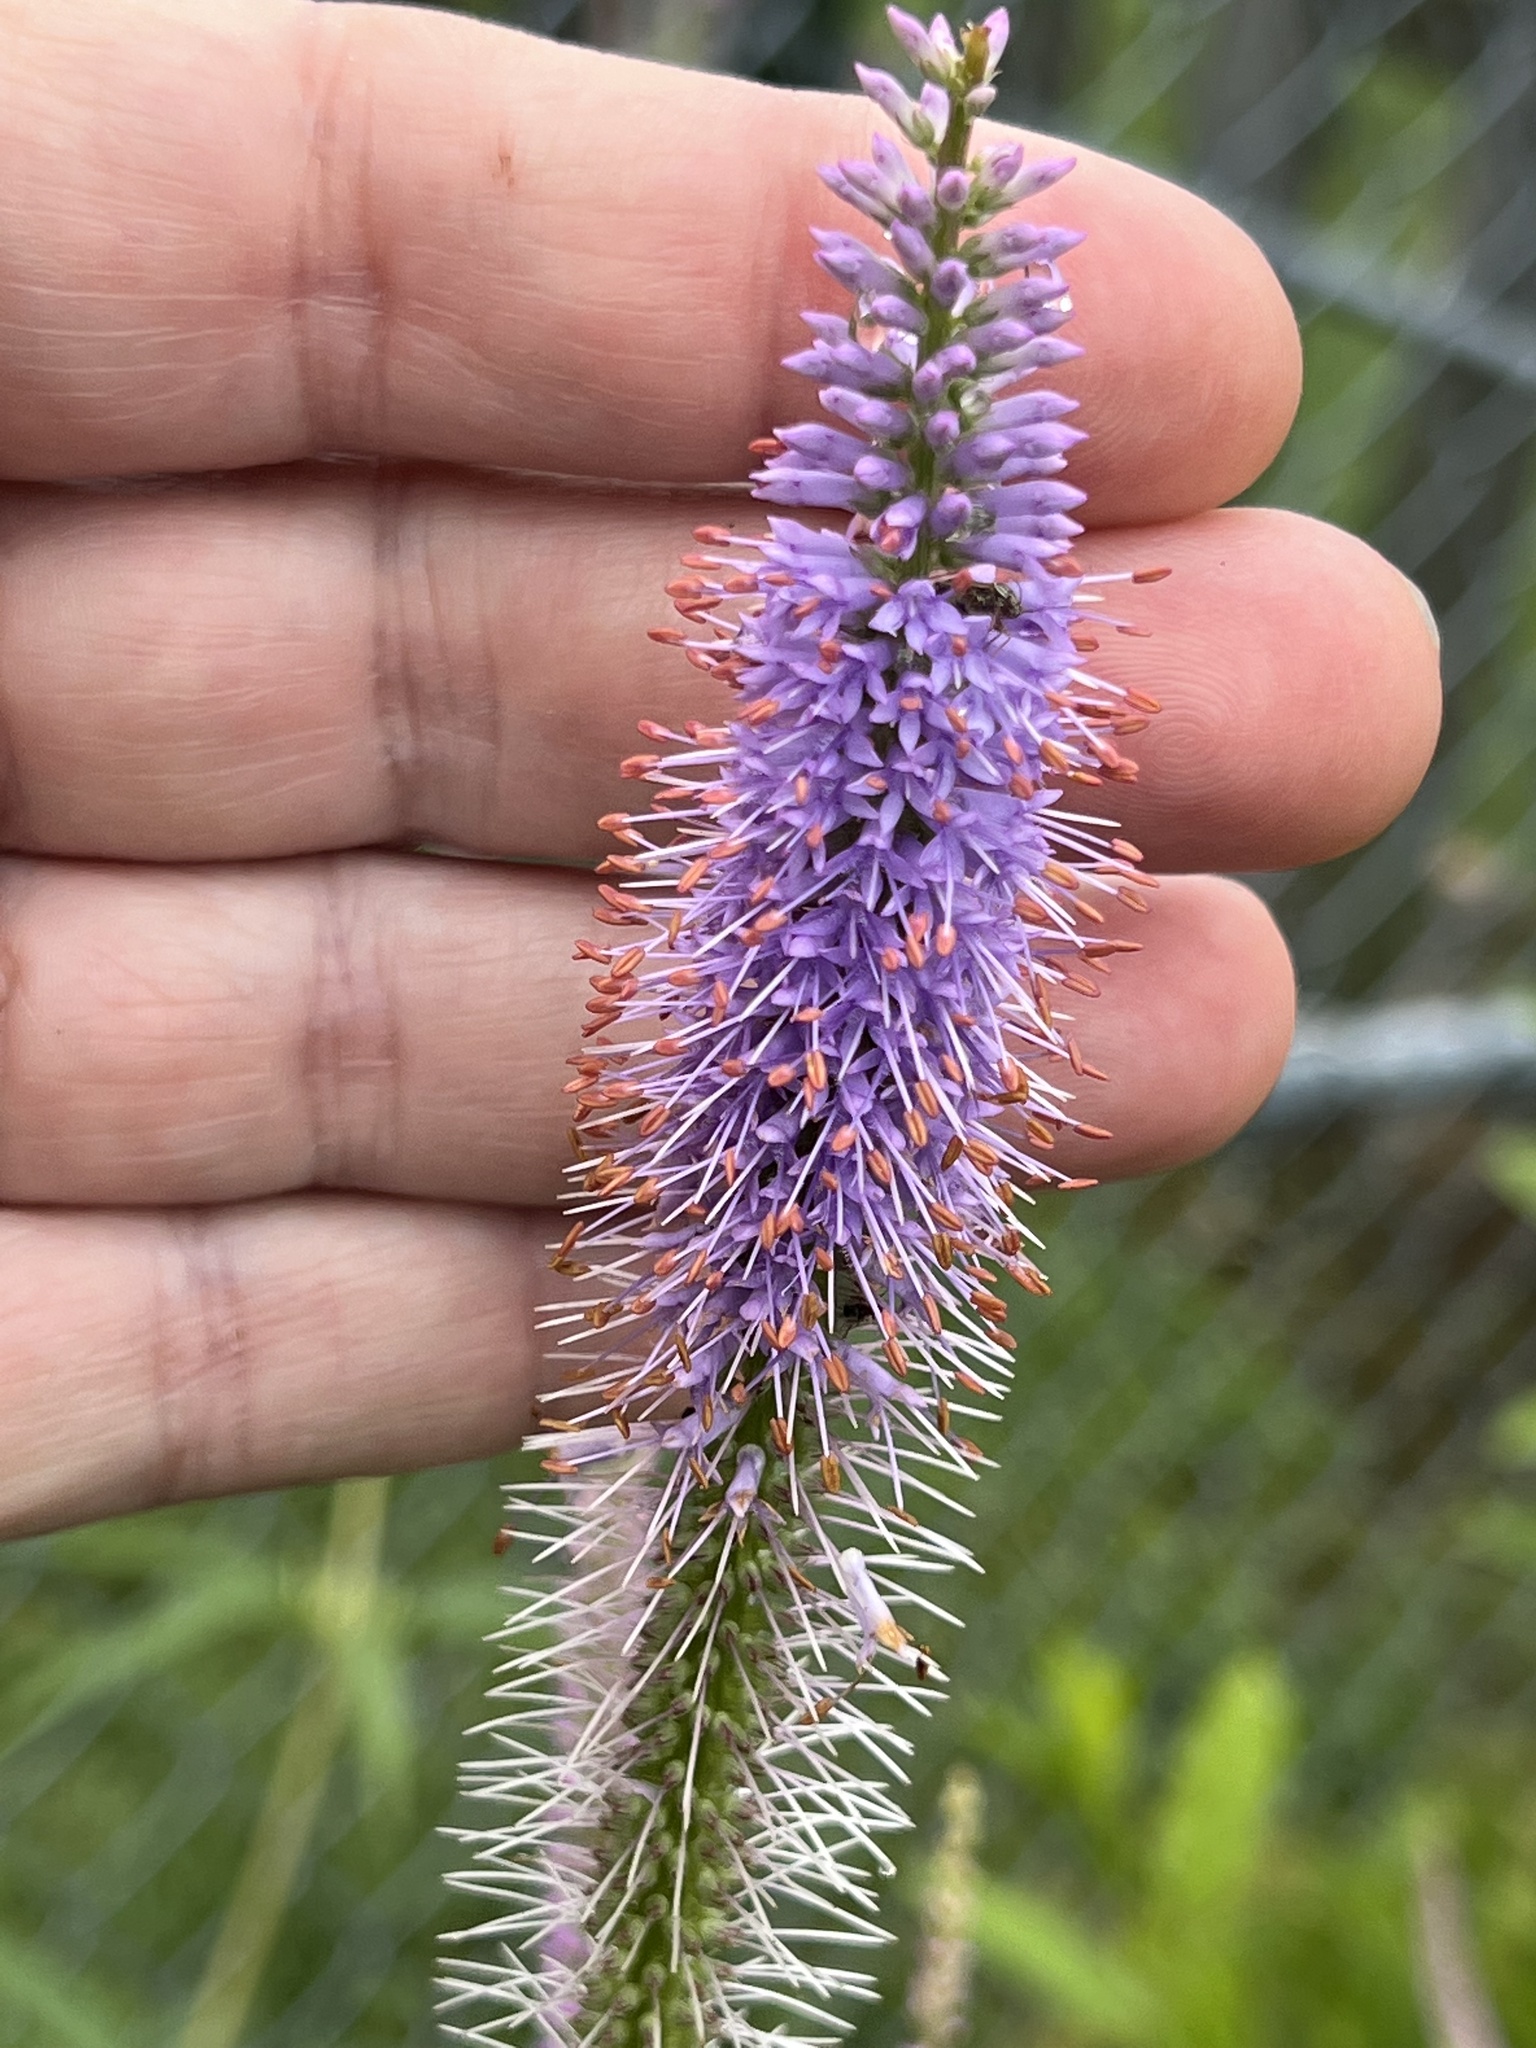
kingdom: Plantae
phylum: Tracheophyta
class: Magnoliopsida
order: Lamiales
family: Plantaginaceae
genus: Veronicastrum
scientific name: Veronicastrum virginicum
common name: Blackroot
